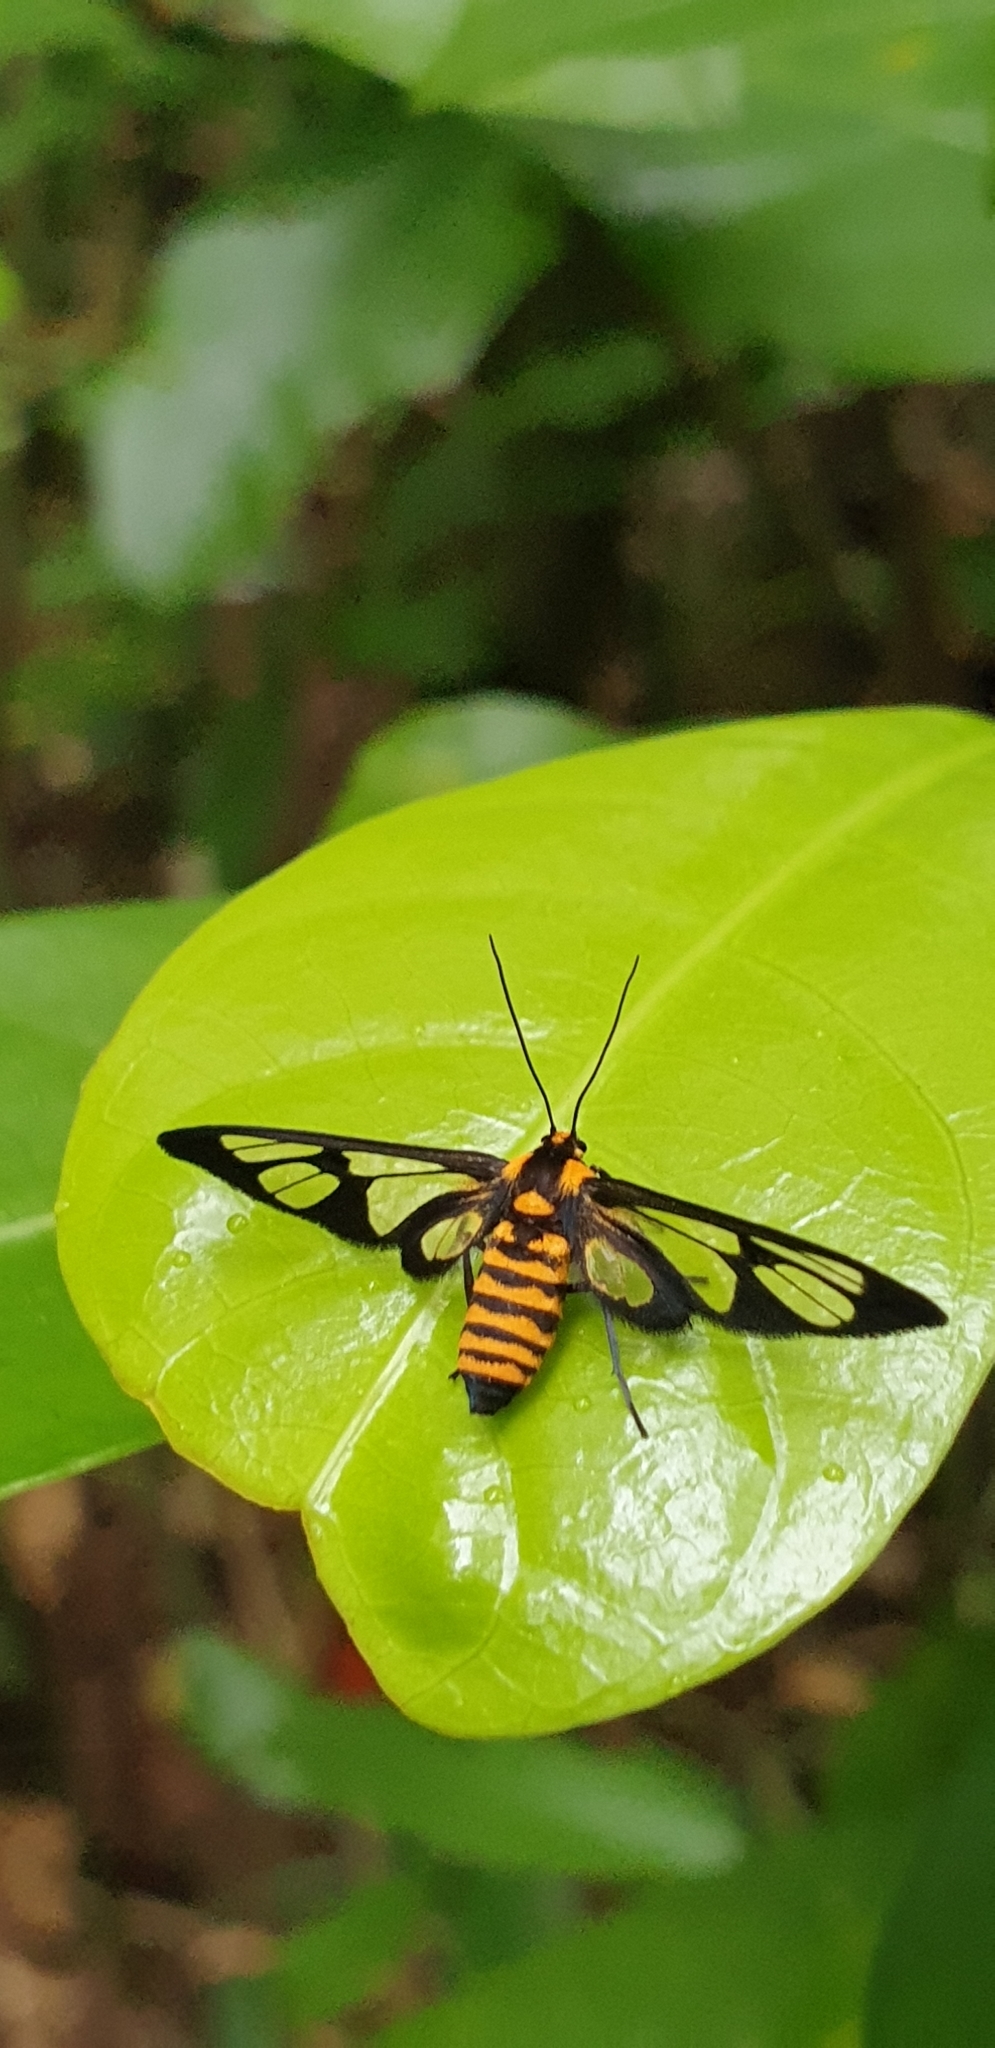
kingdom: Animalia
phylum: Arthropoda
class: Insecta
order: Lepidoptera
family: Erebidae
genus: Ceryx
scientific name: Ceryx sphenodes
